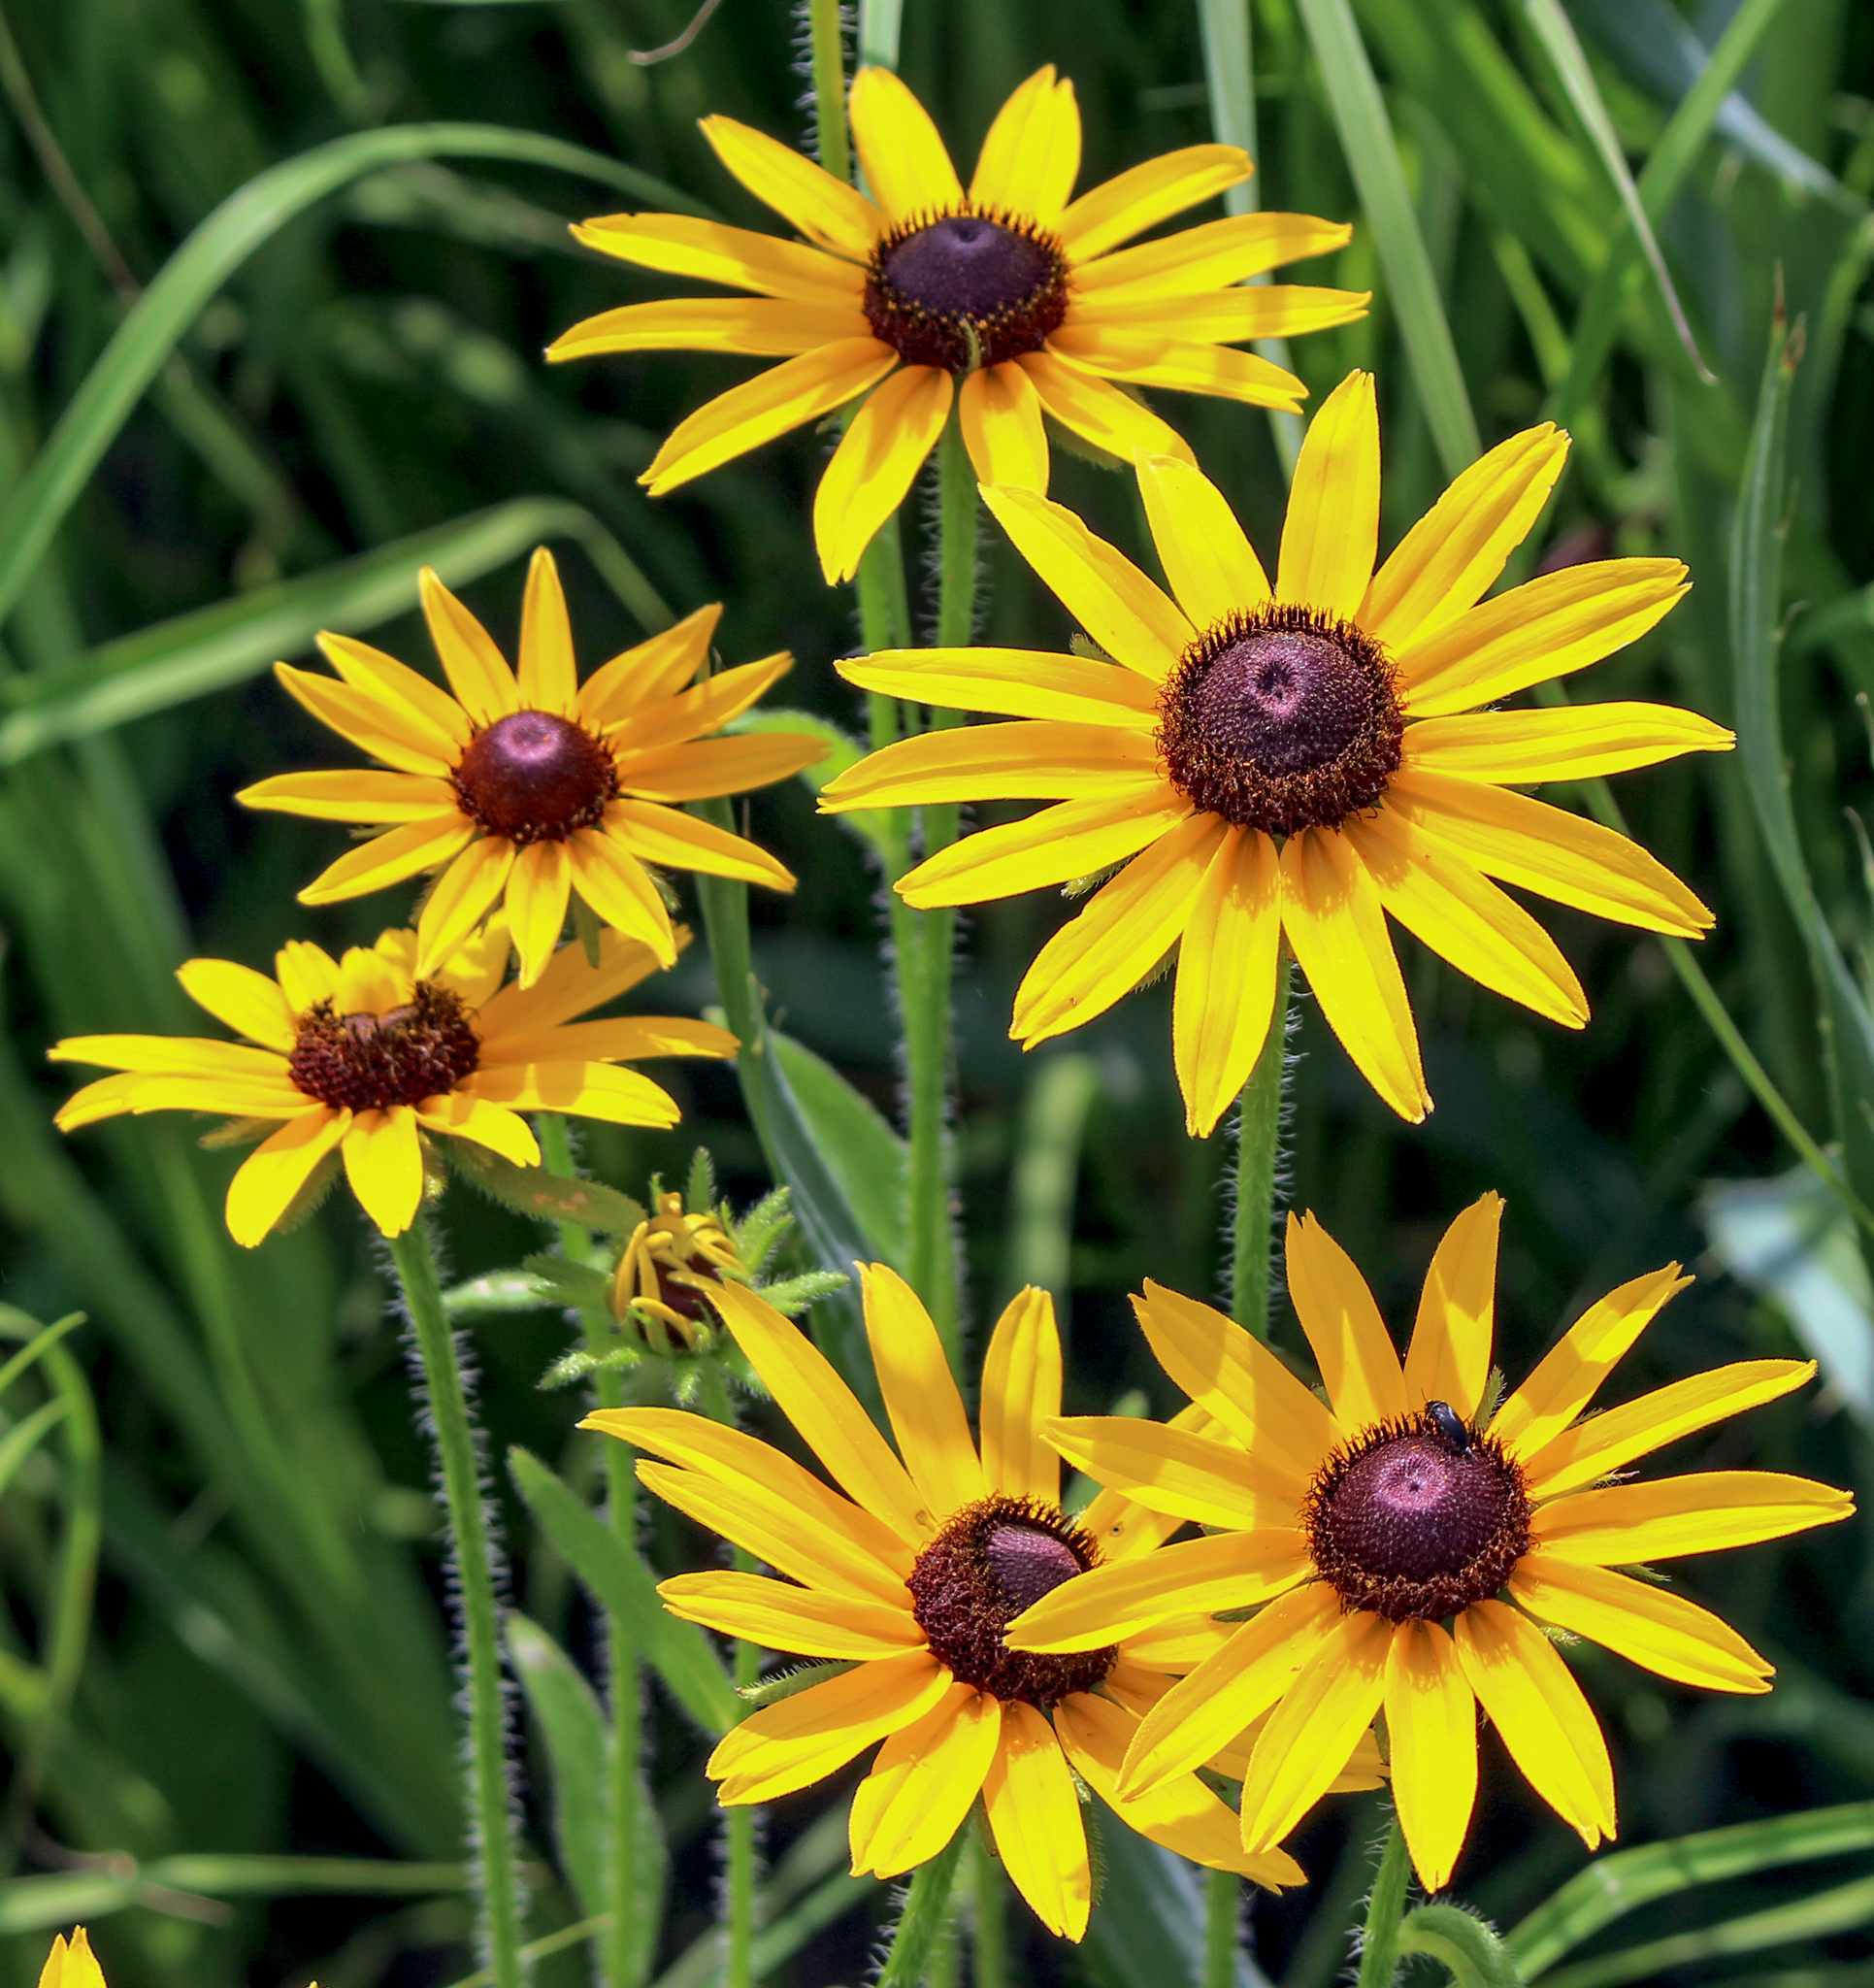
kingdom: Plantae
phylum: Tracheophyta
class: Magnoliopsida
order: Asterales
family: Asteraceae
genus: Rudbeckia
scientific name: Rudbeckia hirta
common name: Black-eyed-susan
